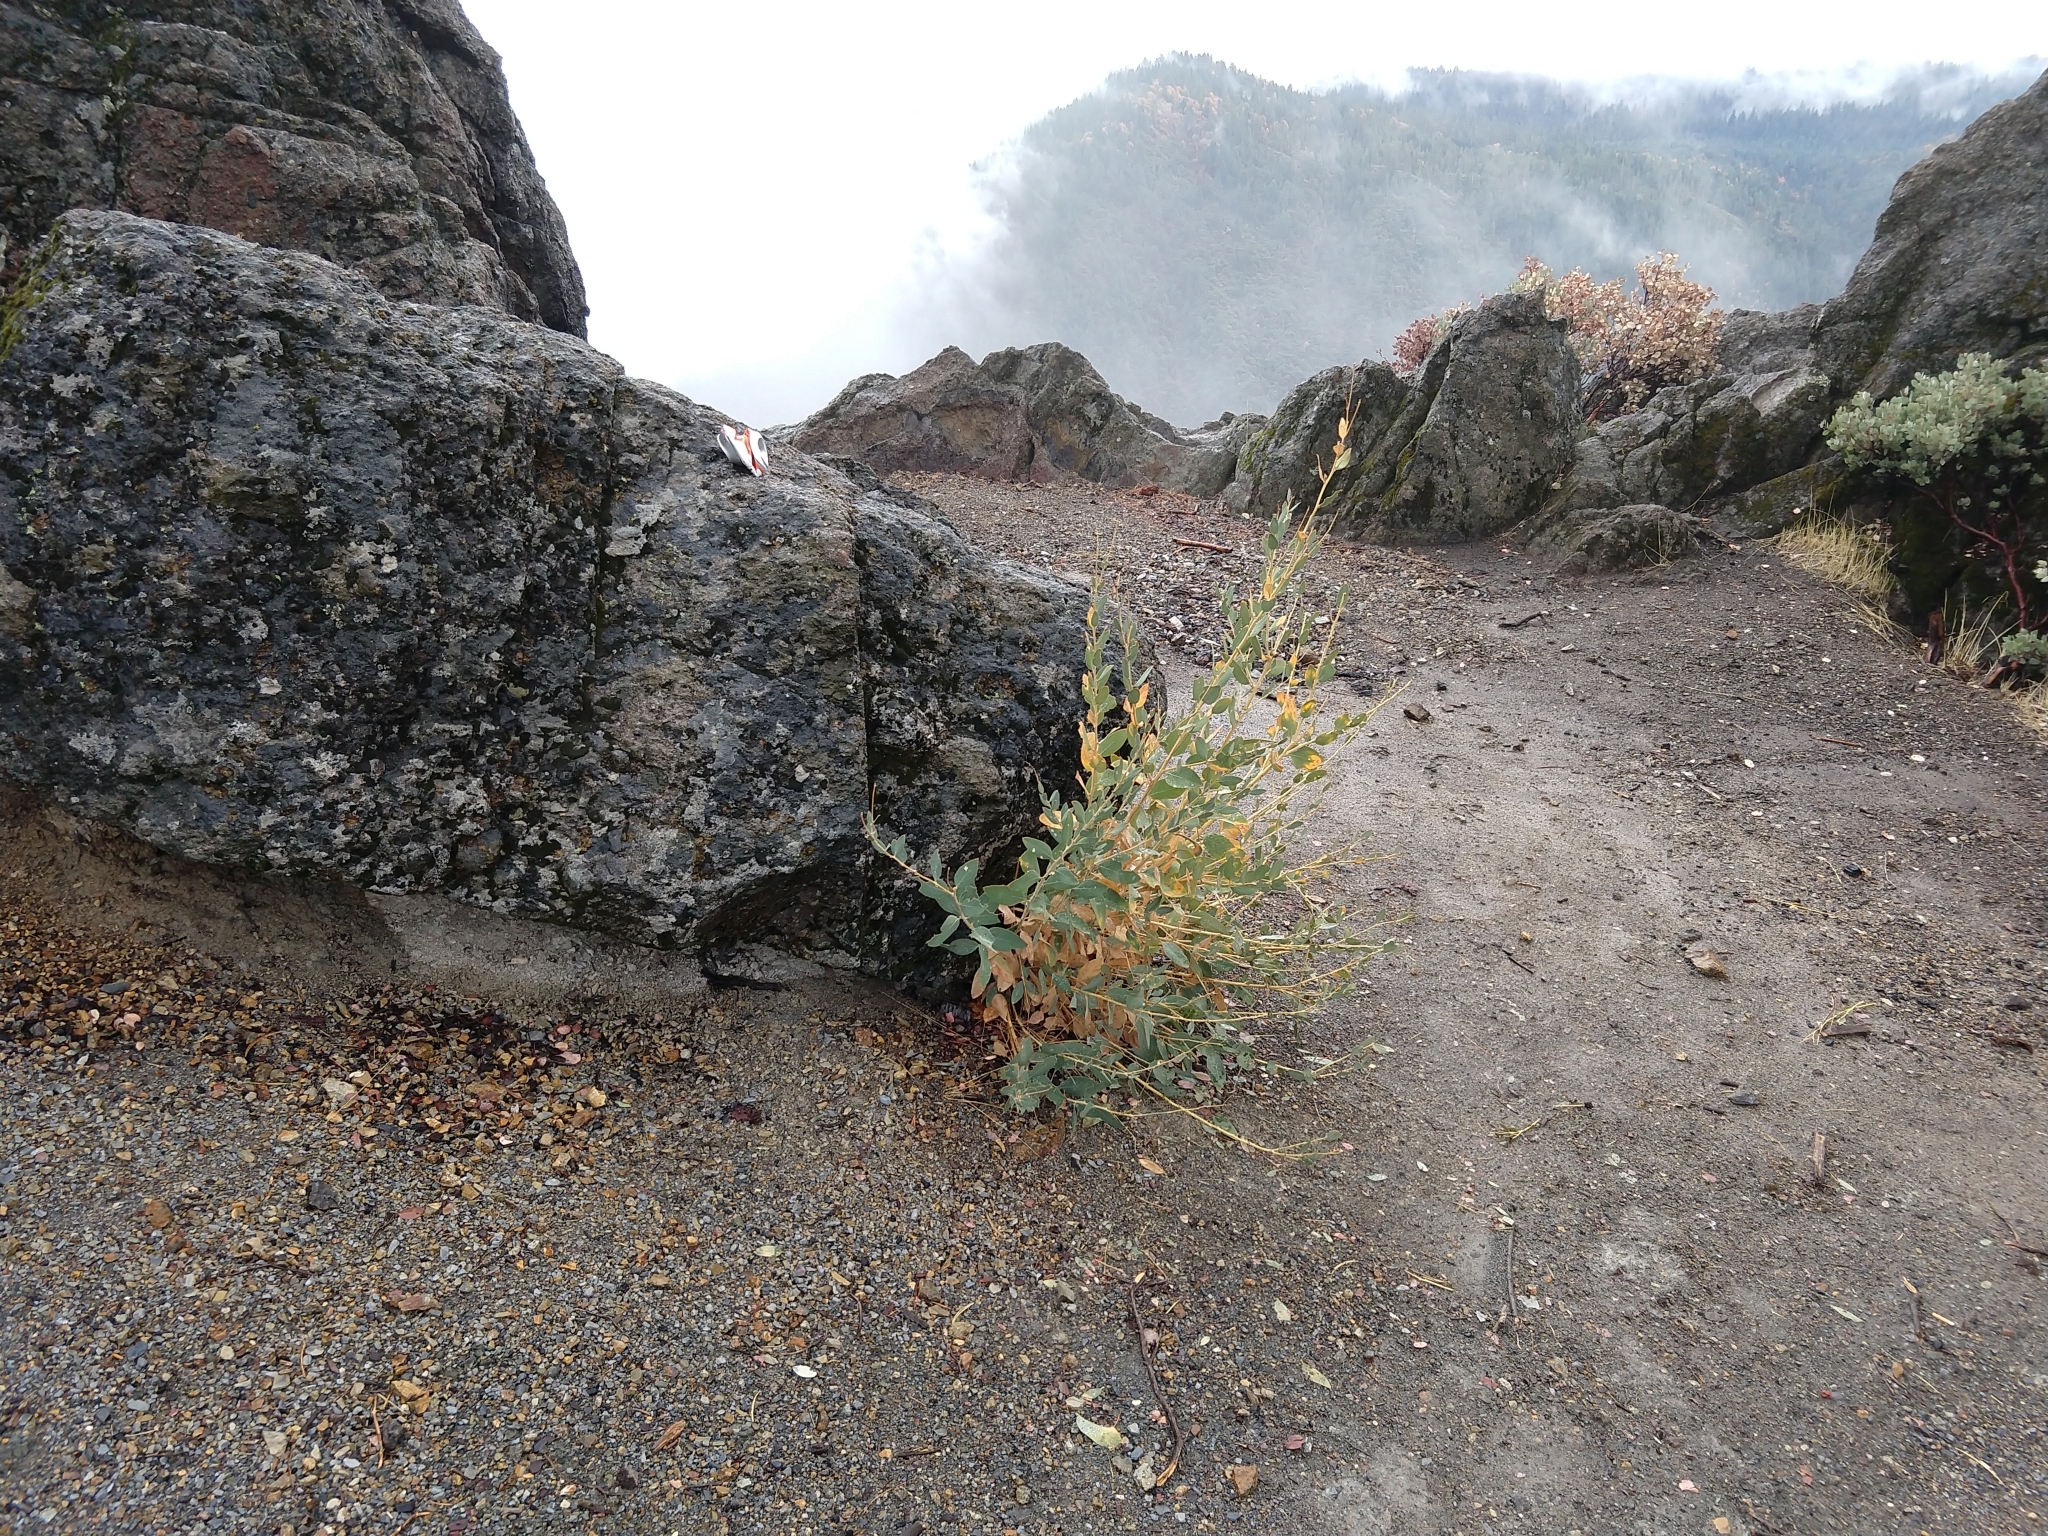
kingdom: Plantae
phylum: Tracheophyta
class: Magnoliopsida
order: Ranunculales
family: Papaveraceae
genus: Dendromecon
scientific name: Dendromecon rigida
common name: Tree poppy
